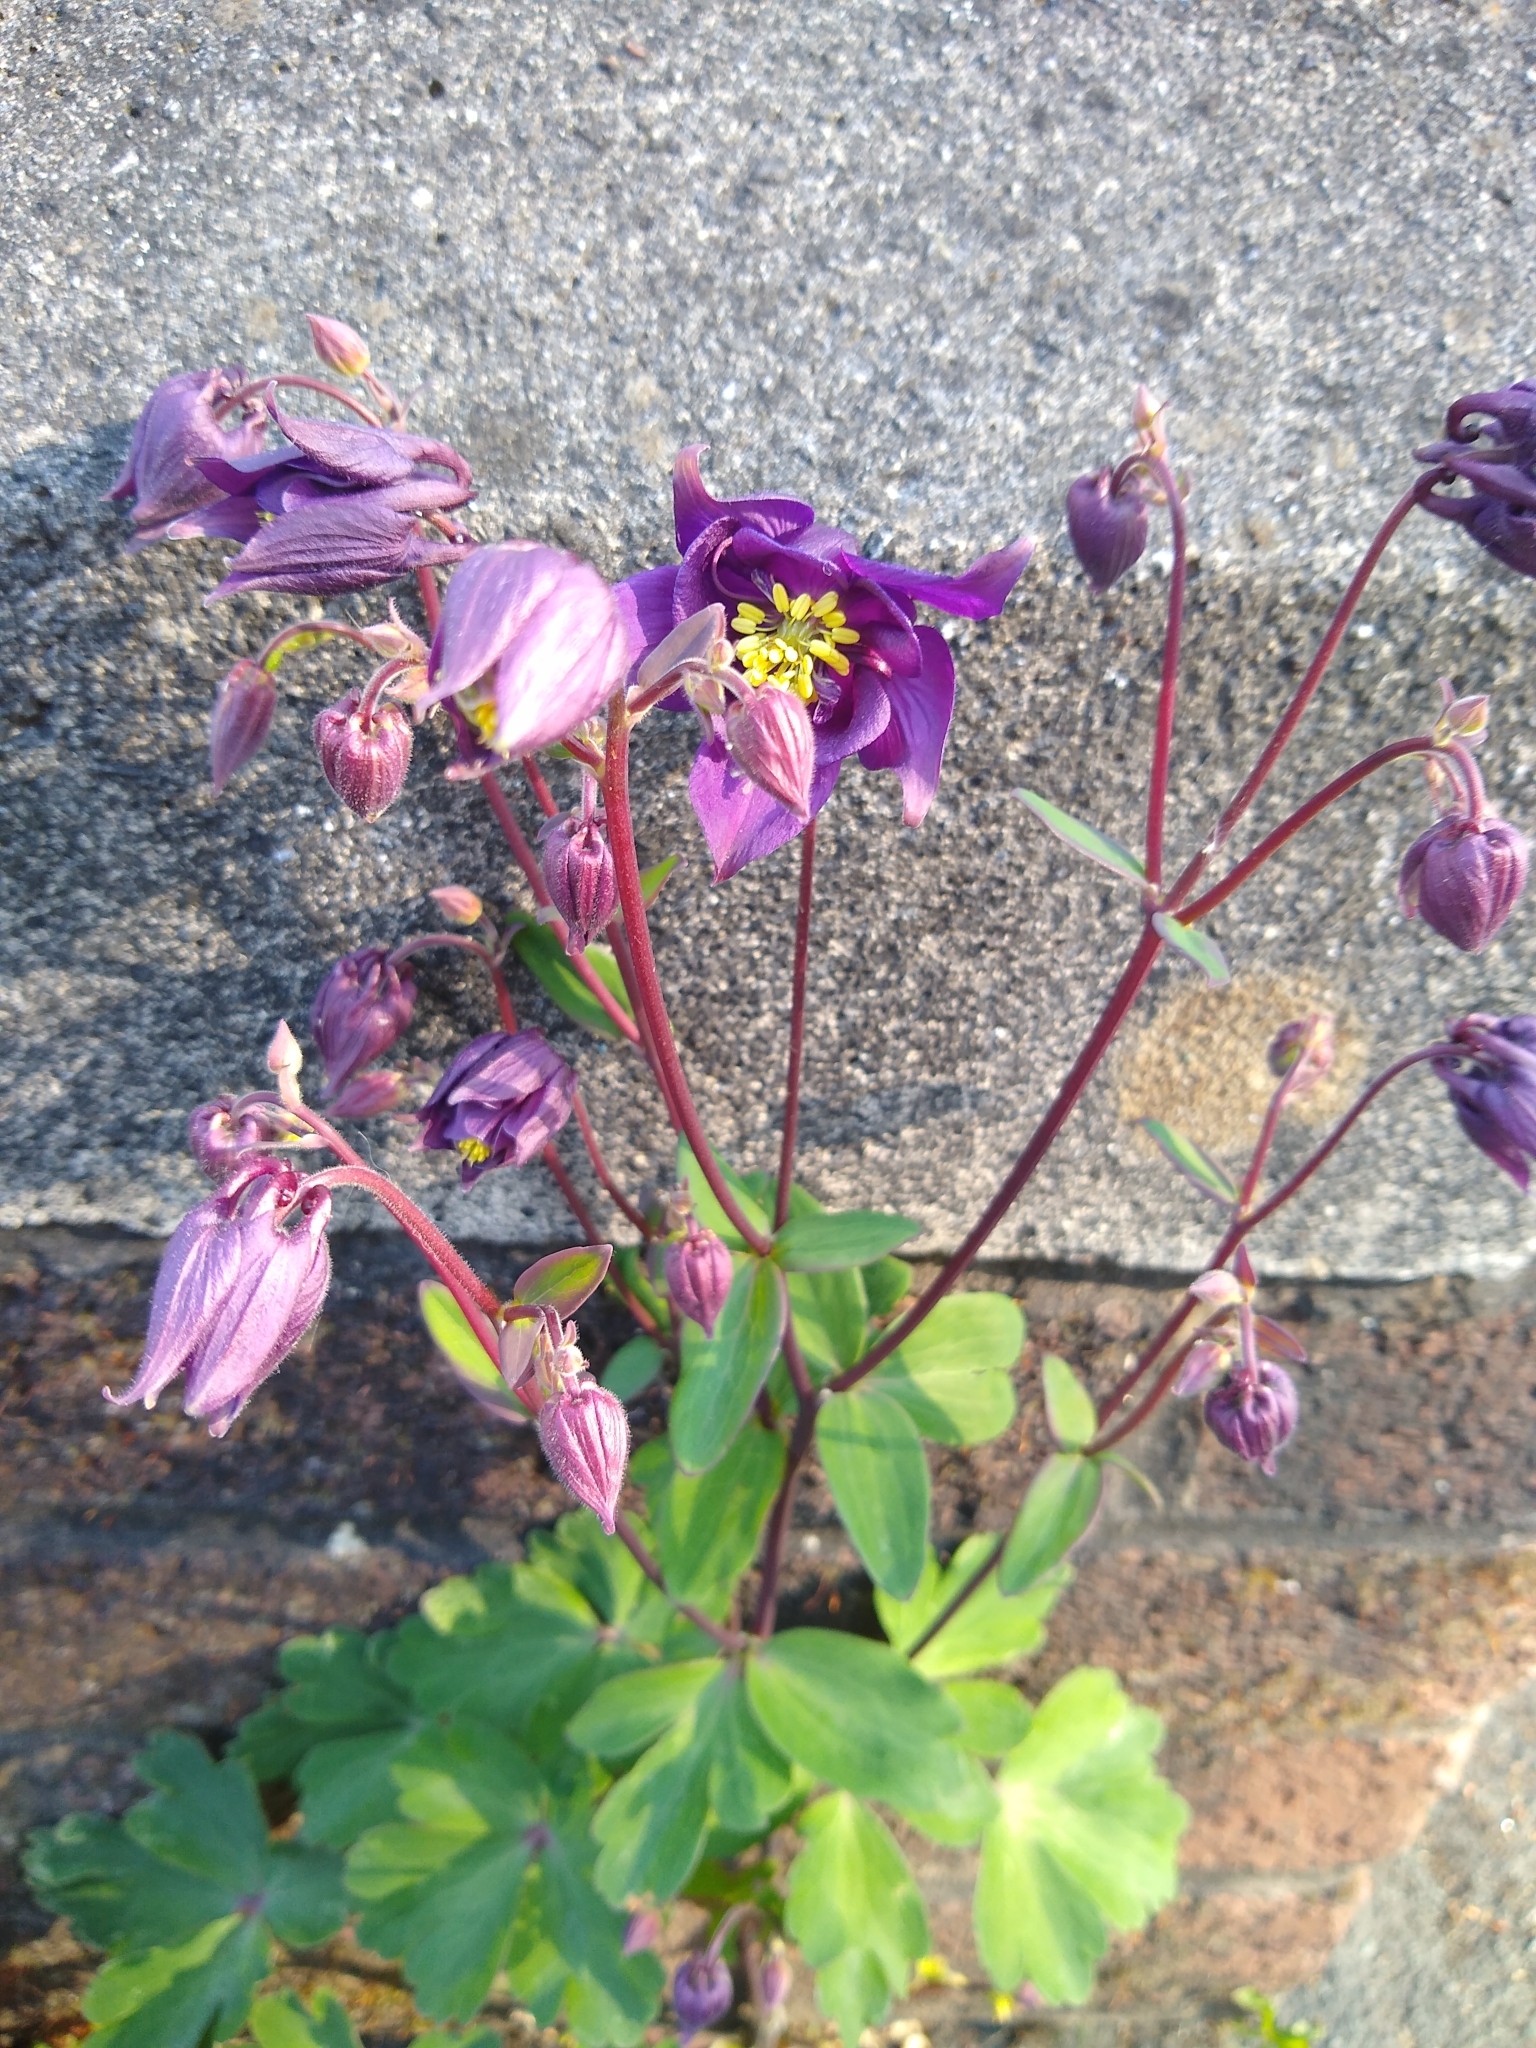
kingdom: Plantae
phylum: Tracheophyta
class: Magnoliopsida
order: Ranunculales
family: Ranunculaceae
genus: Aquilegia
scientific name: Aquilegia vulgaris
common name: Columbine
